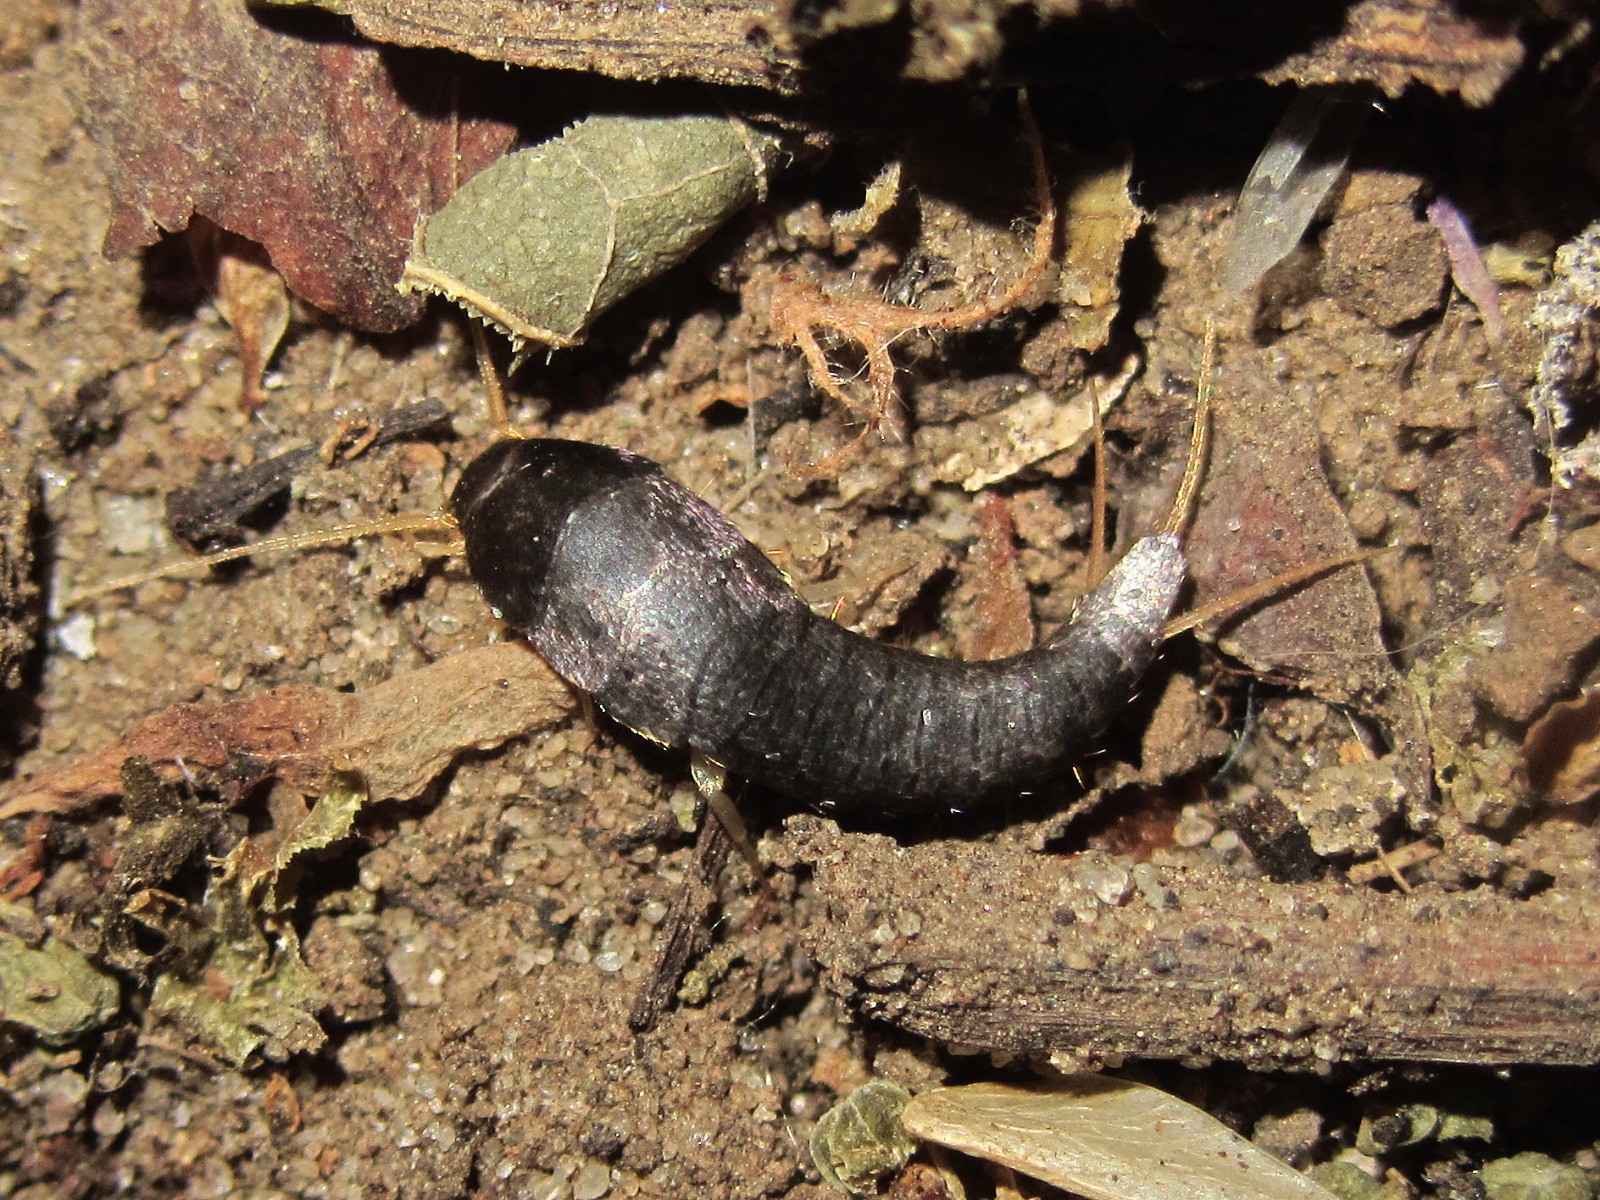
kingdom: Animalia
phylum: Arthropoda
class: Insecta
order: Zygentoma
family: Lepismatidae
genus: Lepisma
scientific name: Lepisma saccharinum
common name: Silverfish
